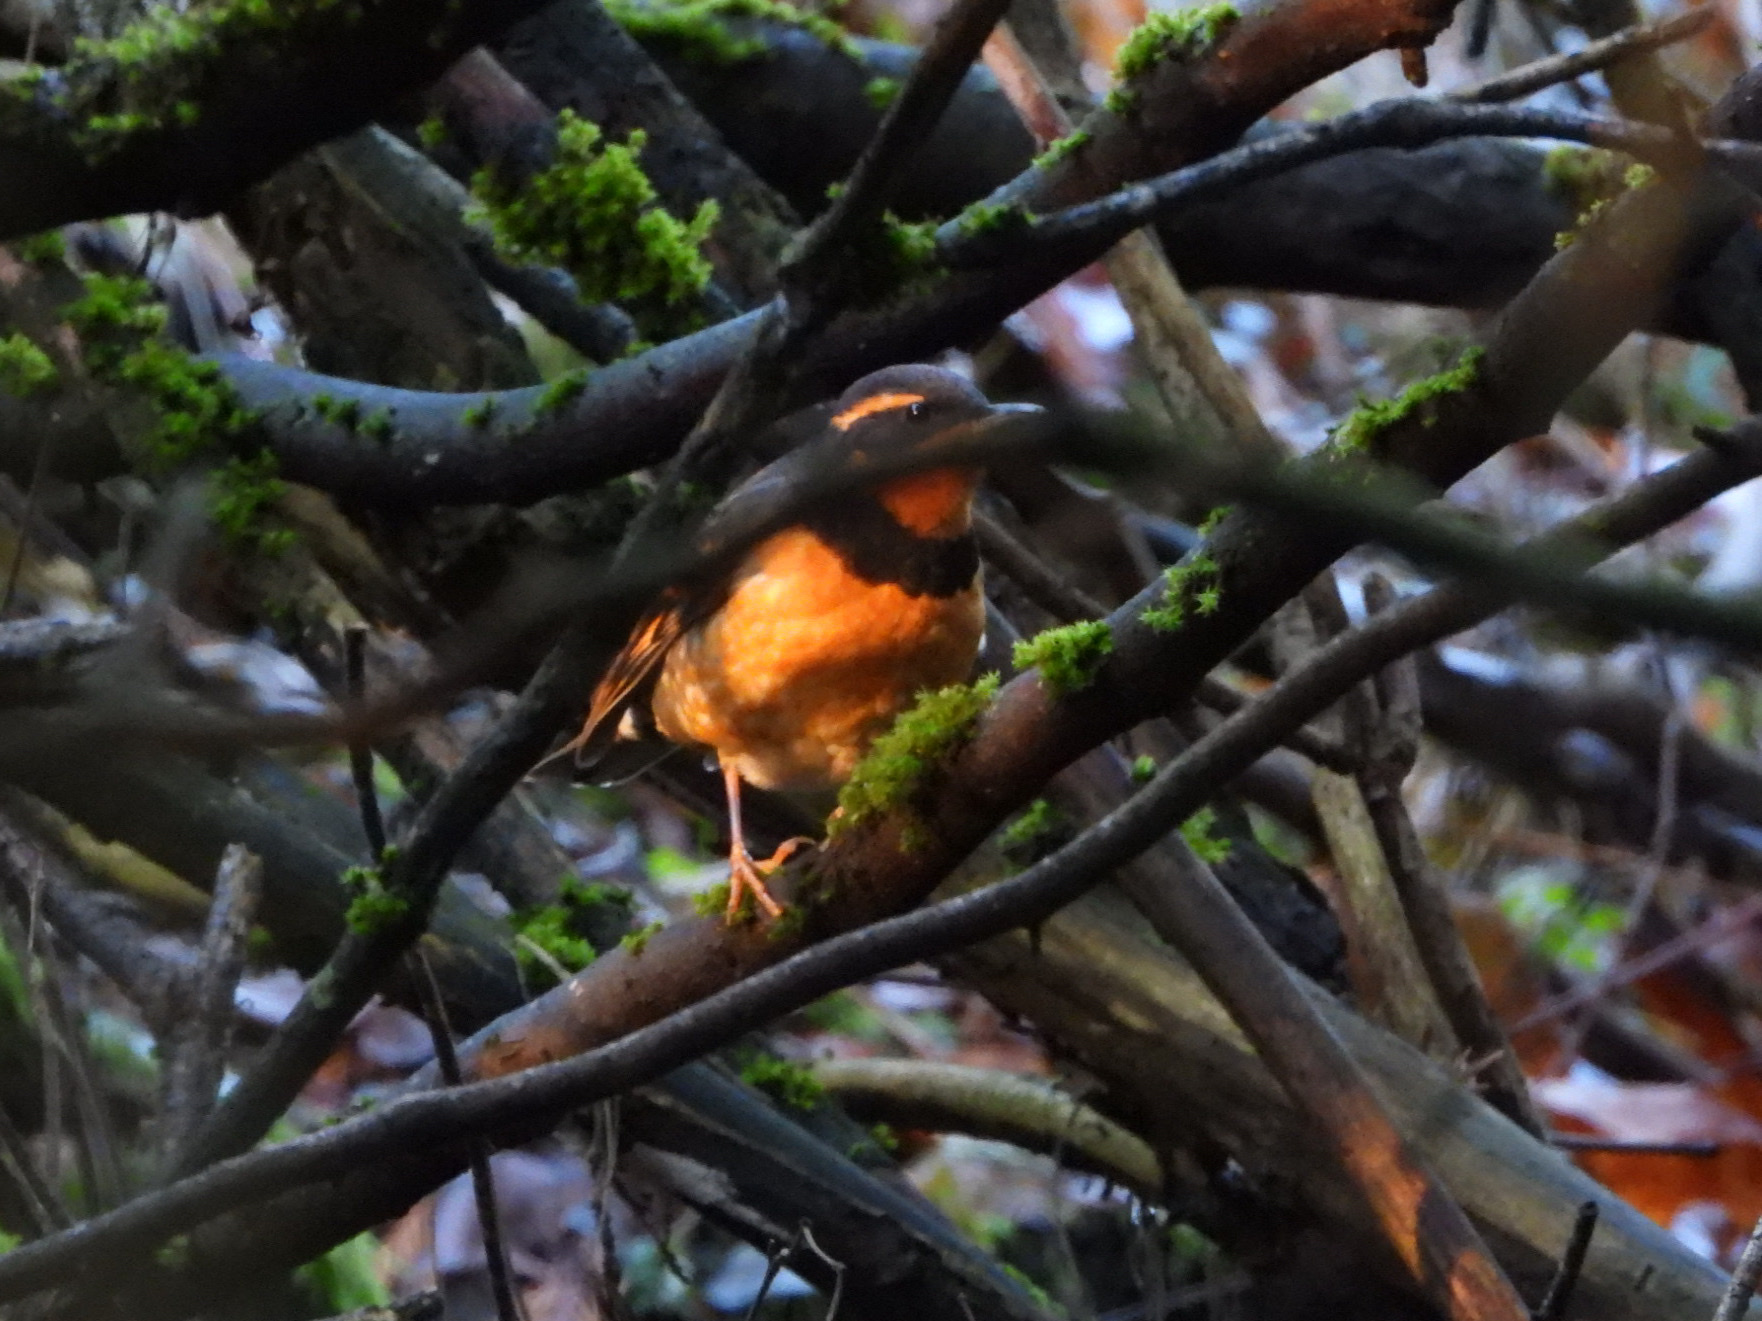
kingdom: Animalia
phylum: Chordata
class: Aves
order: Passeriformes
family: Turdidae
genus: Ixoreus
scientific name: Ixoreus naevius
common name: Varied thrush
